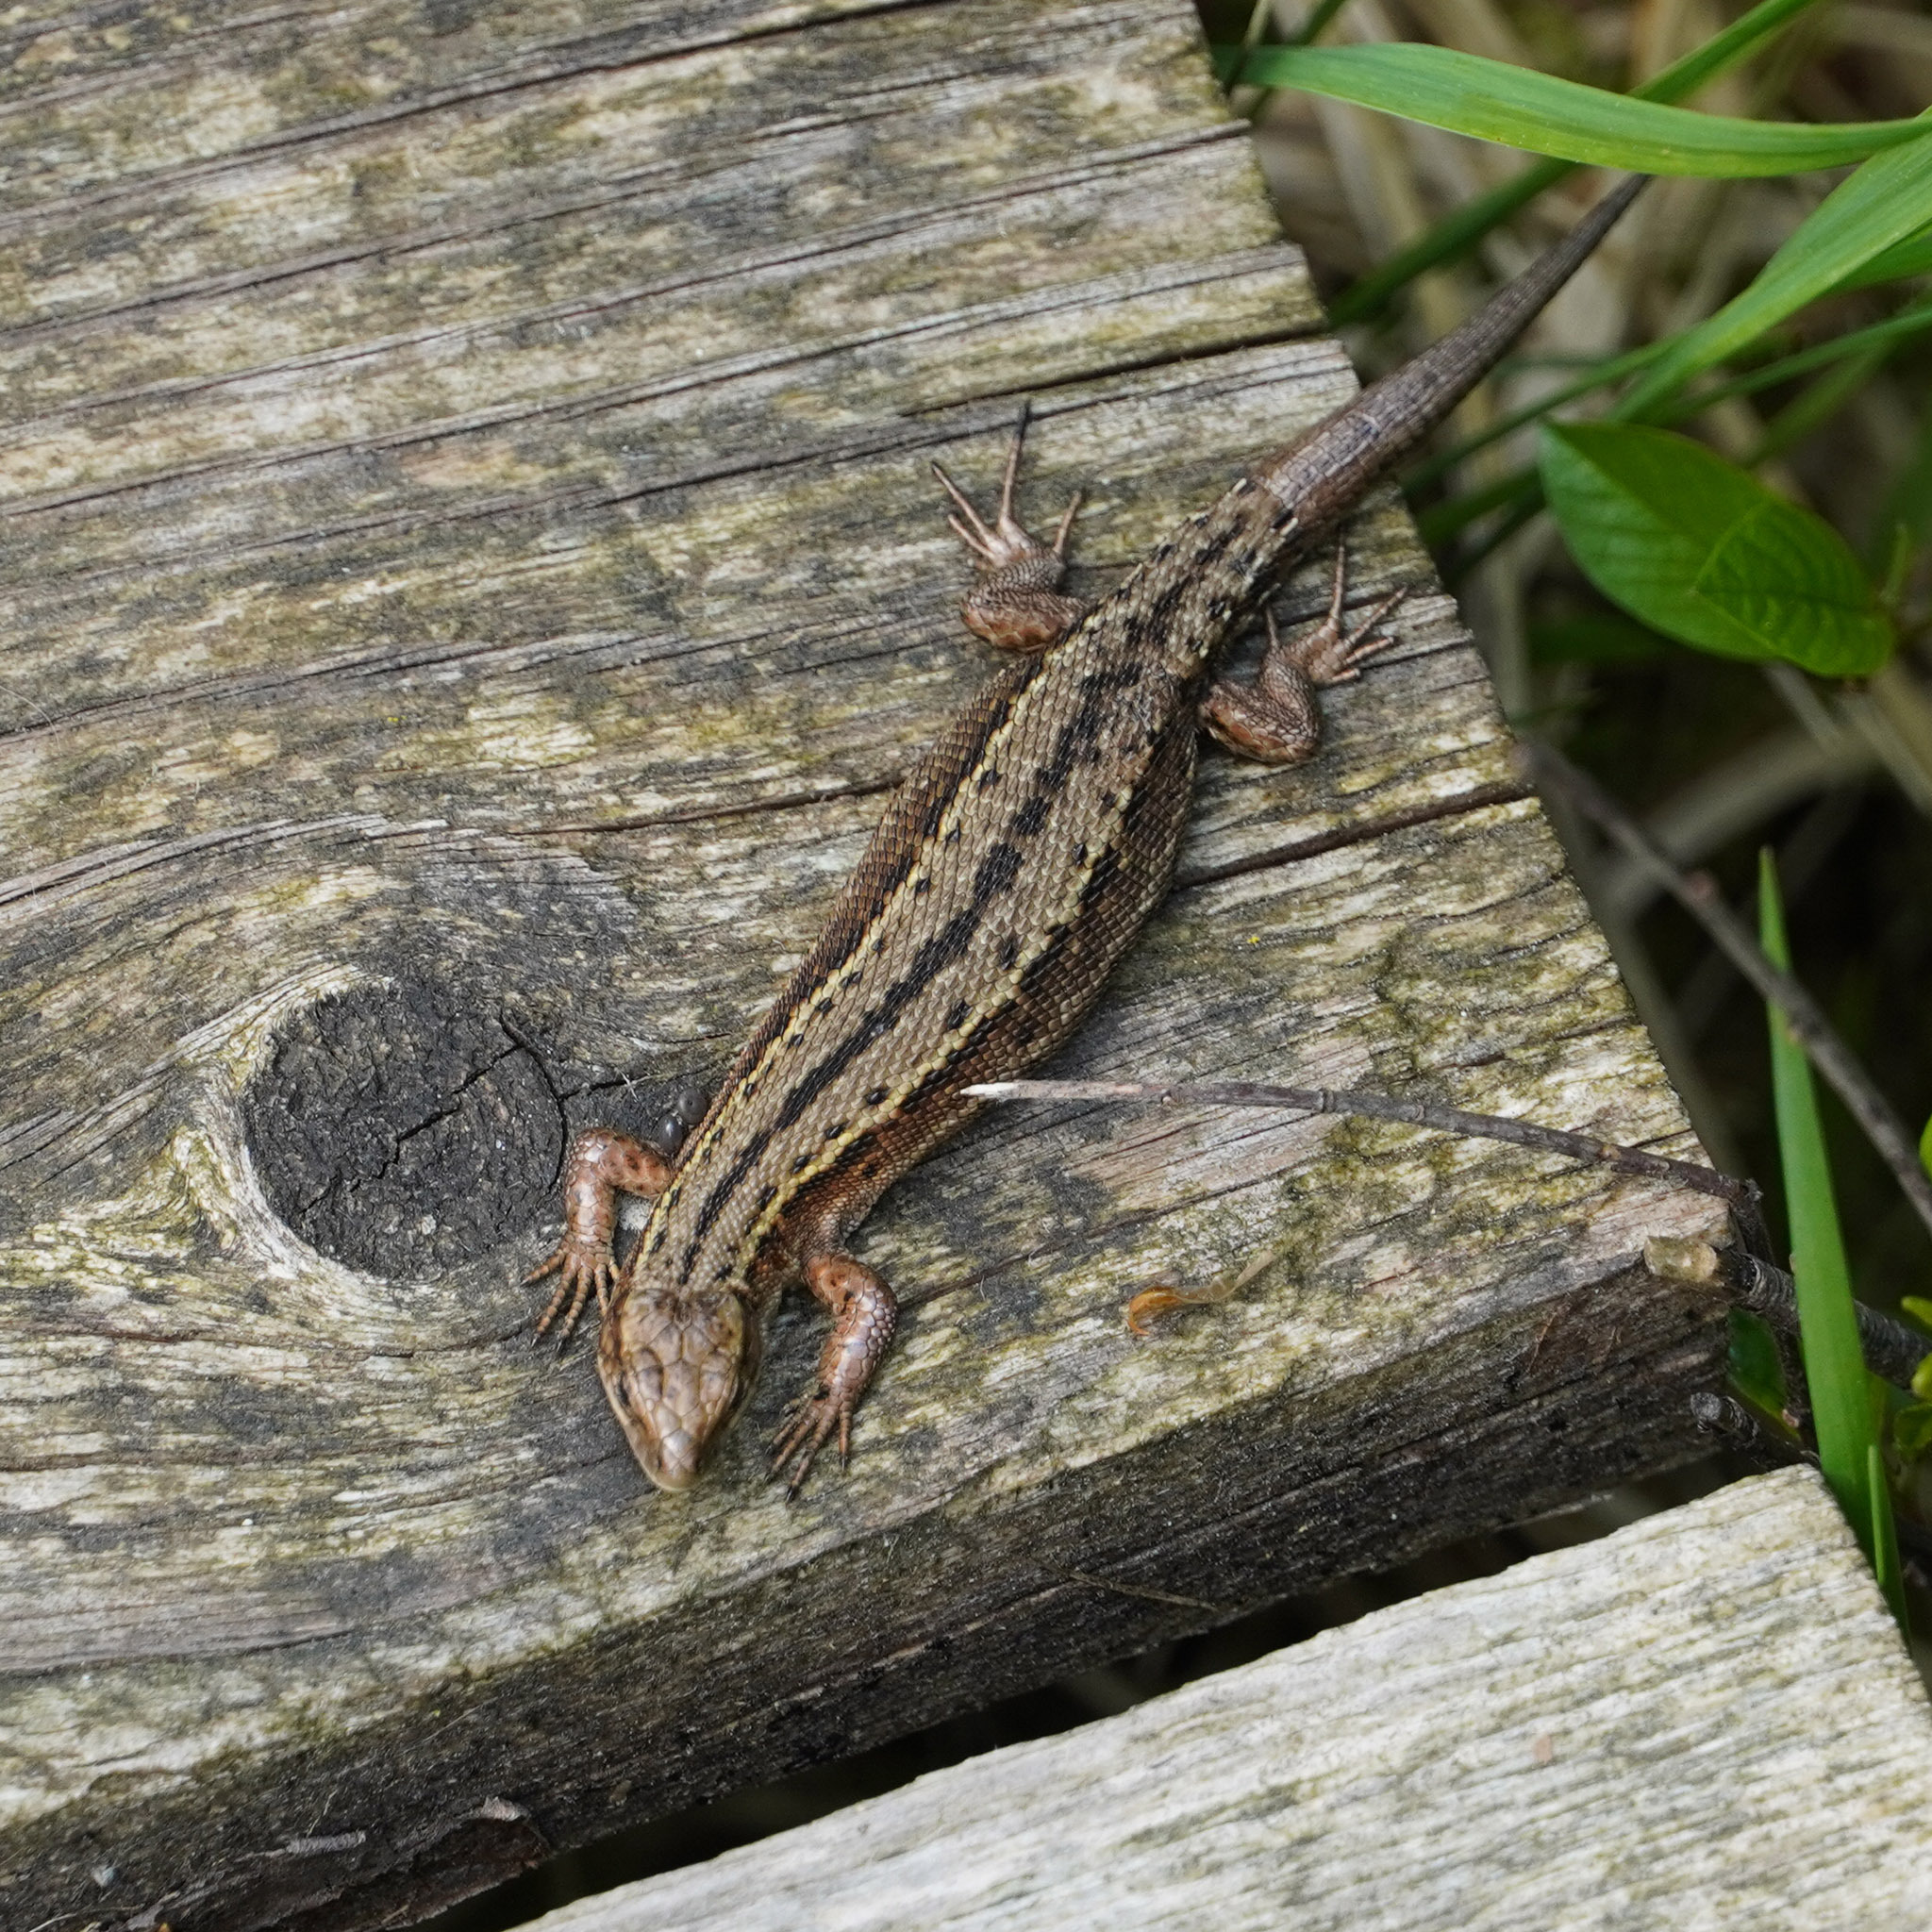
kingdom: Animalia
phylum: Chordata
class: Squamata
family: Lacertidae
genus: Zootoca
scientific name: Zootoca vivipara
